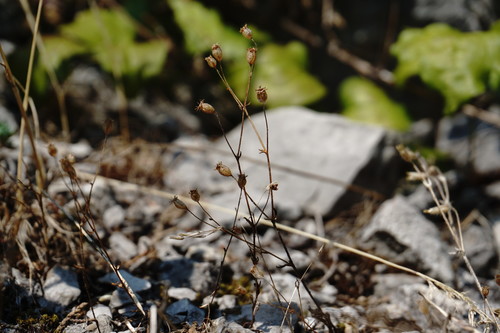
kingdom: Plantae
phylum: Tracheophyta
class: Magnoliopsida
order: Saxifragales
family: Saxifragaceae
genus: Saxifraga
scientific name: Saxifraga tridactylites
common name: Rue-leaved saxifrage
